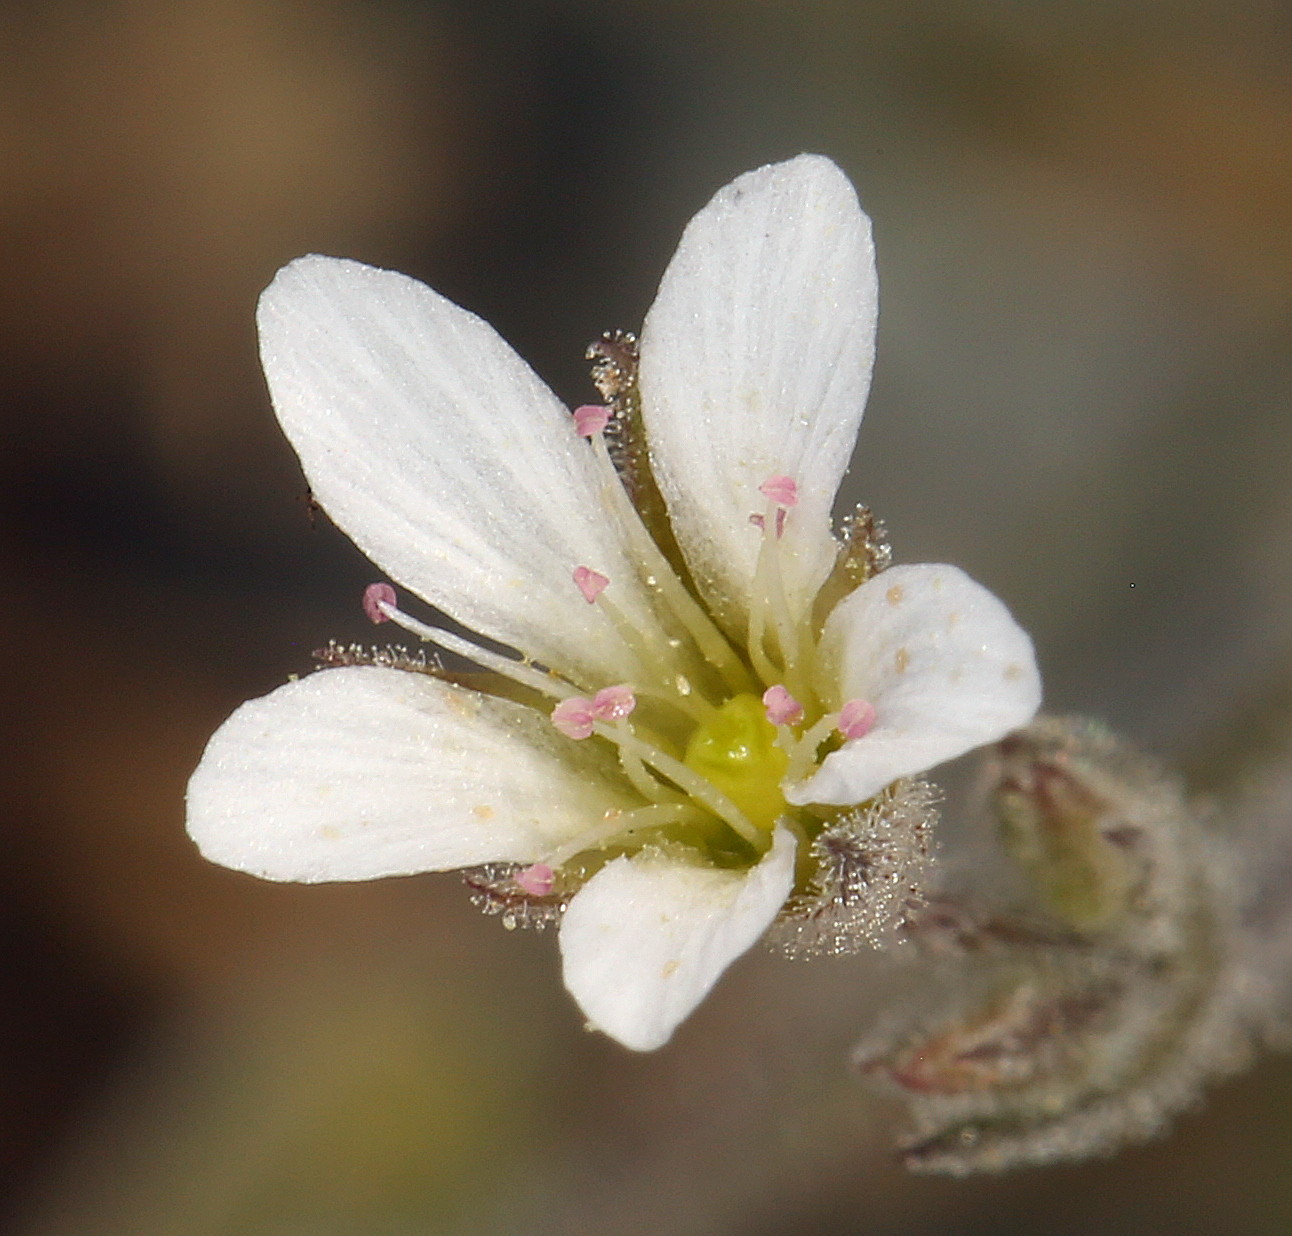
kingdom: Plantae
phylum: Tracheophyta
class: Magnoliopsida
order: Caryophyllales
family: Caryophyllaceae
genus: Sabulina
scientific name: Sabulina nuttallii
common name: Nuttall's stitchwort
